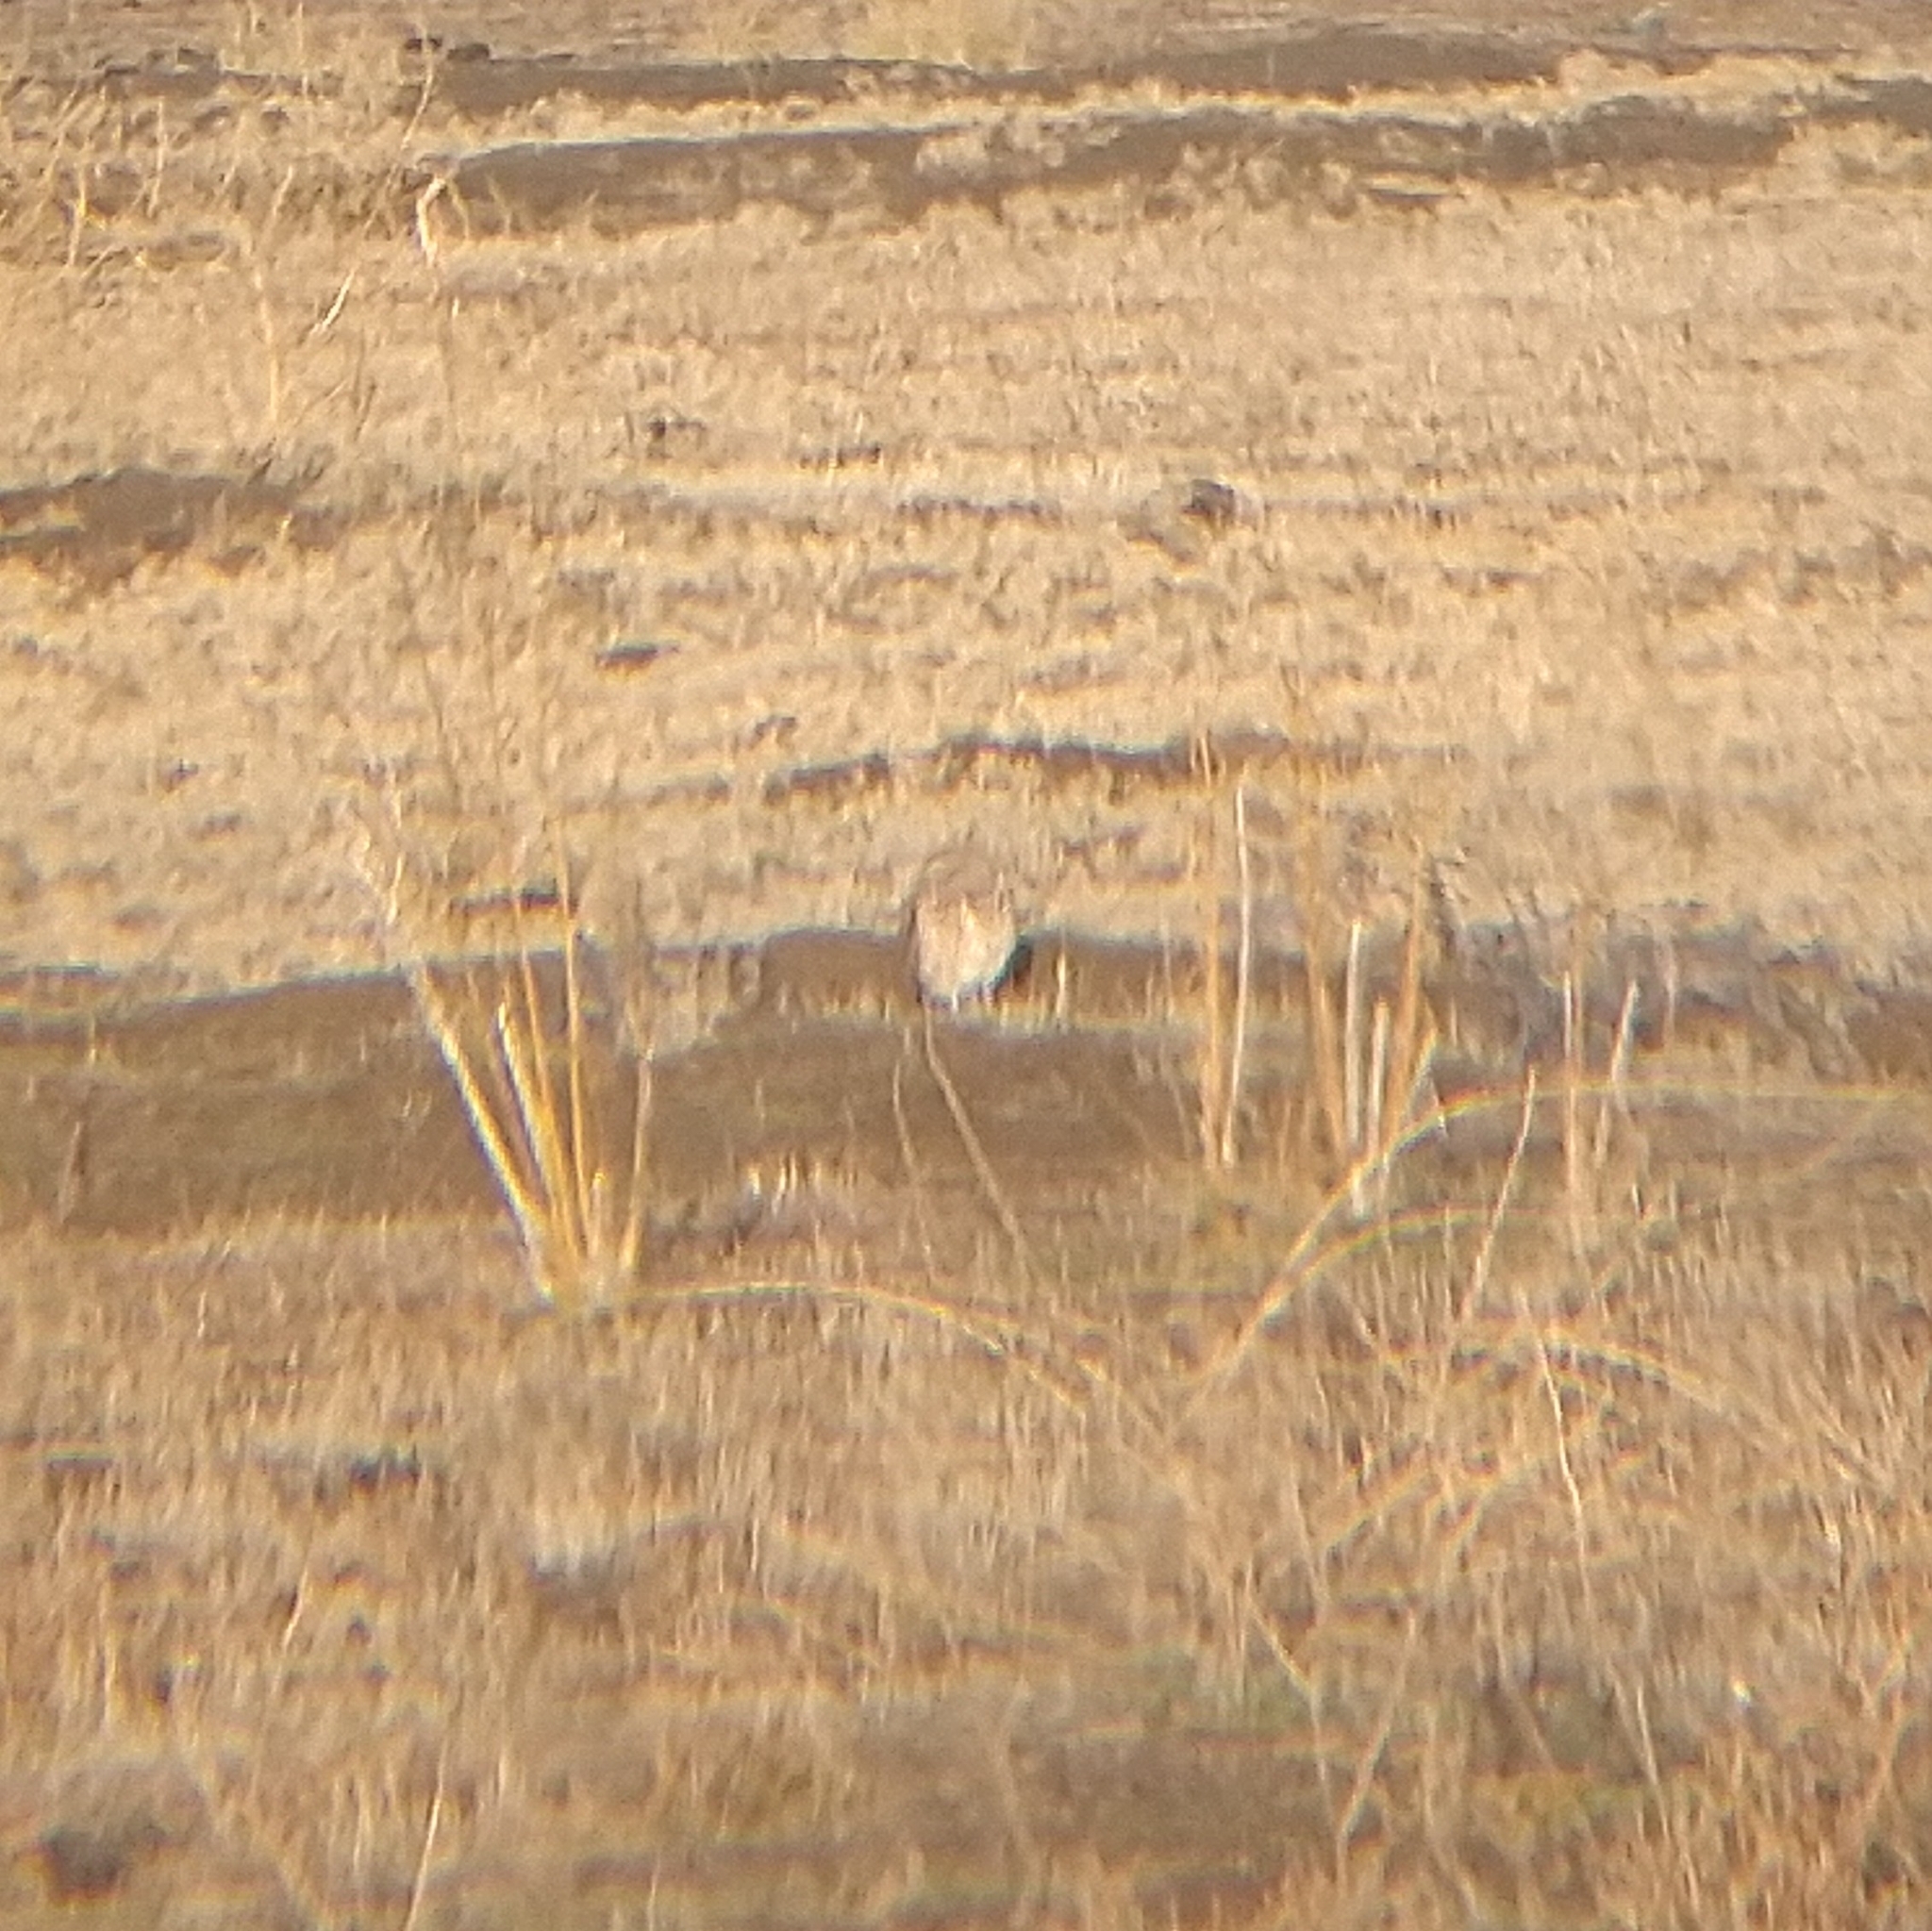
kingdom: Animalia
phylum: Chordata
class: Aves
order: Strigiformes
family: Strigidae
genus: Athene
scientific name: Athene cunicularia
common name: Burrowing owl
